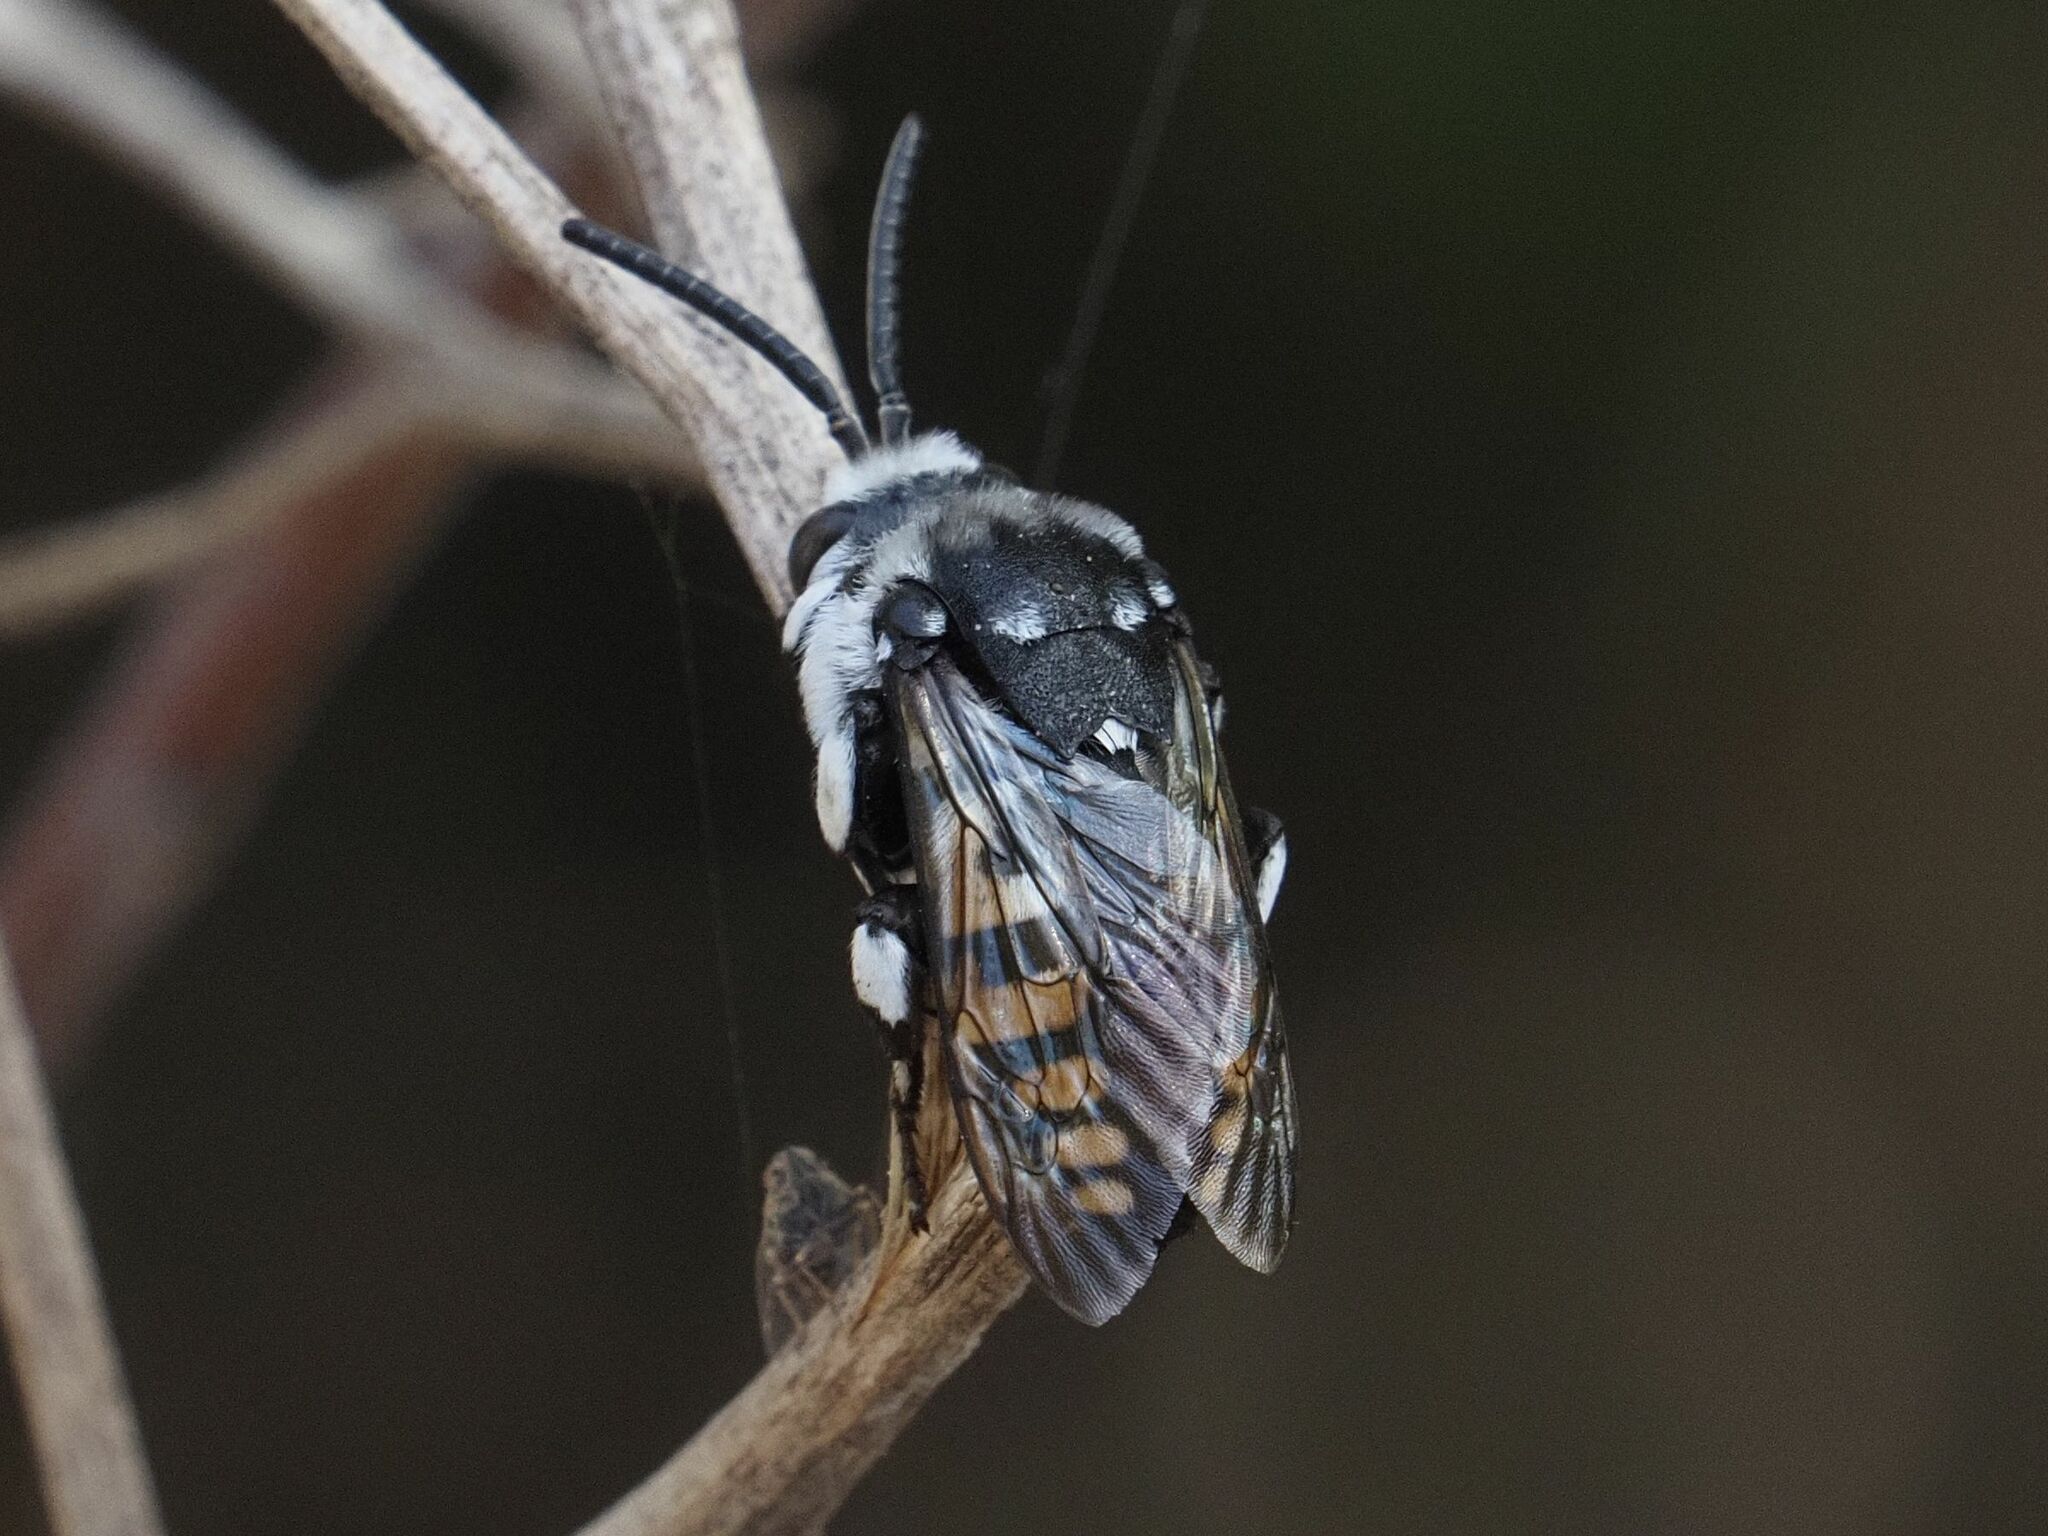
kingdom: Animalia
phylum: Arthropoda
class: Insecta
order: Hymenoptera
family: Apidae
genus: Thyreus
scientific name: Thyreus histrionicus
